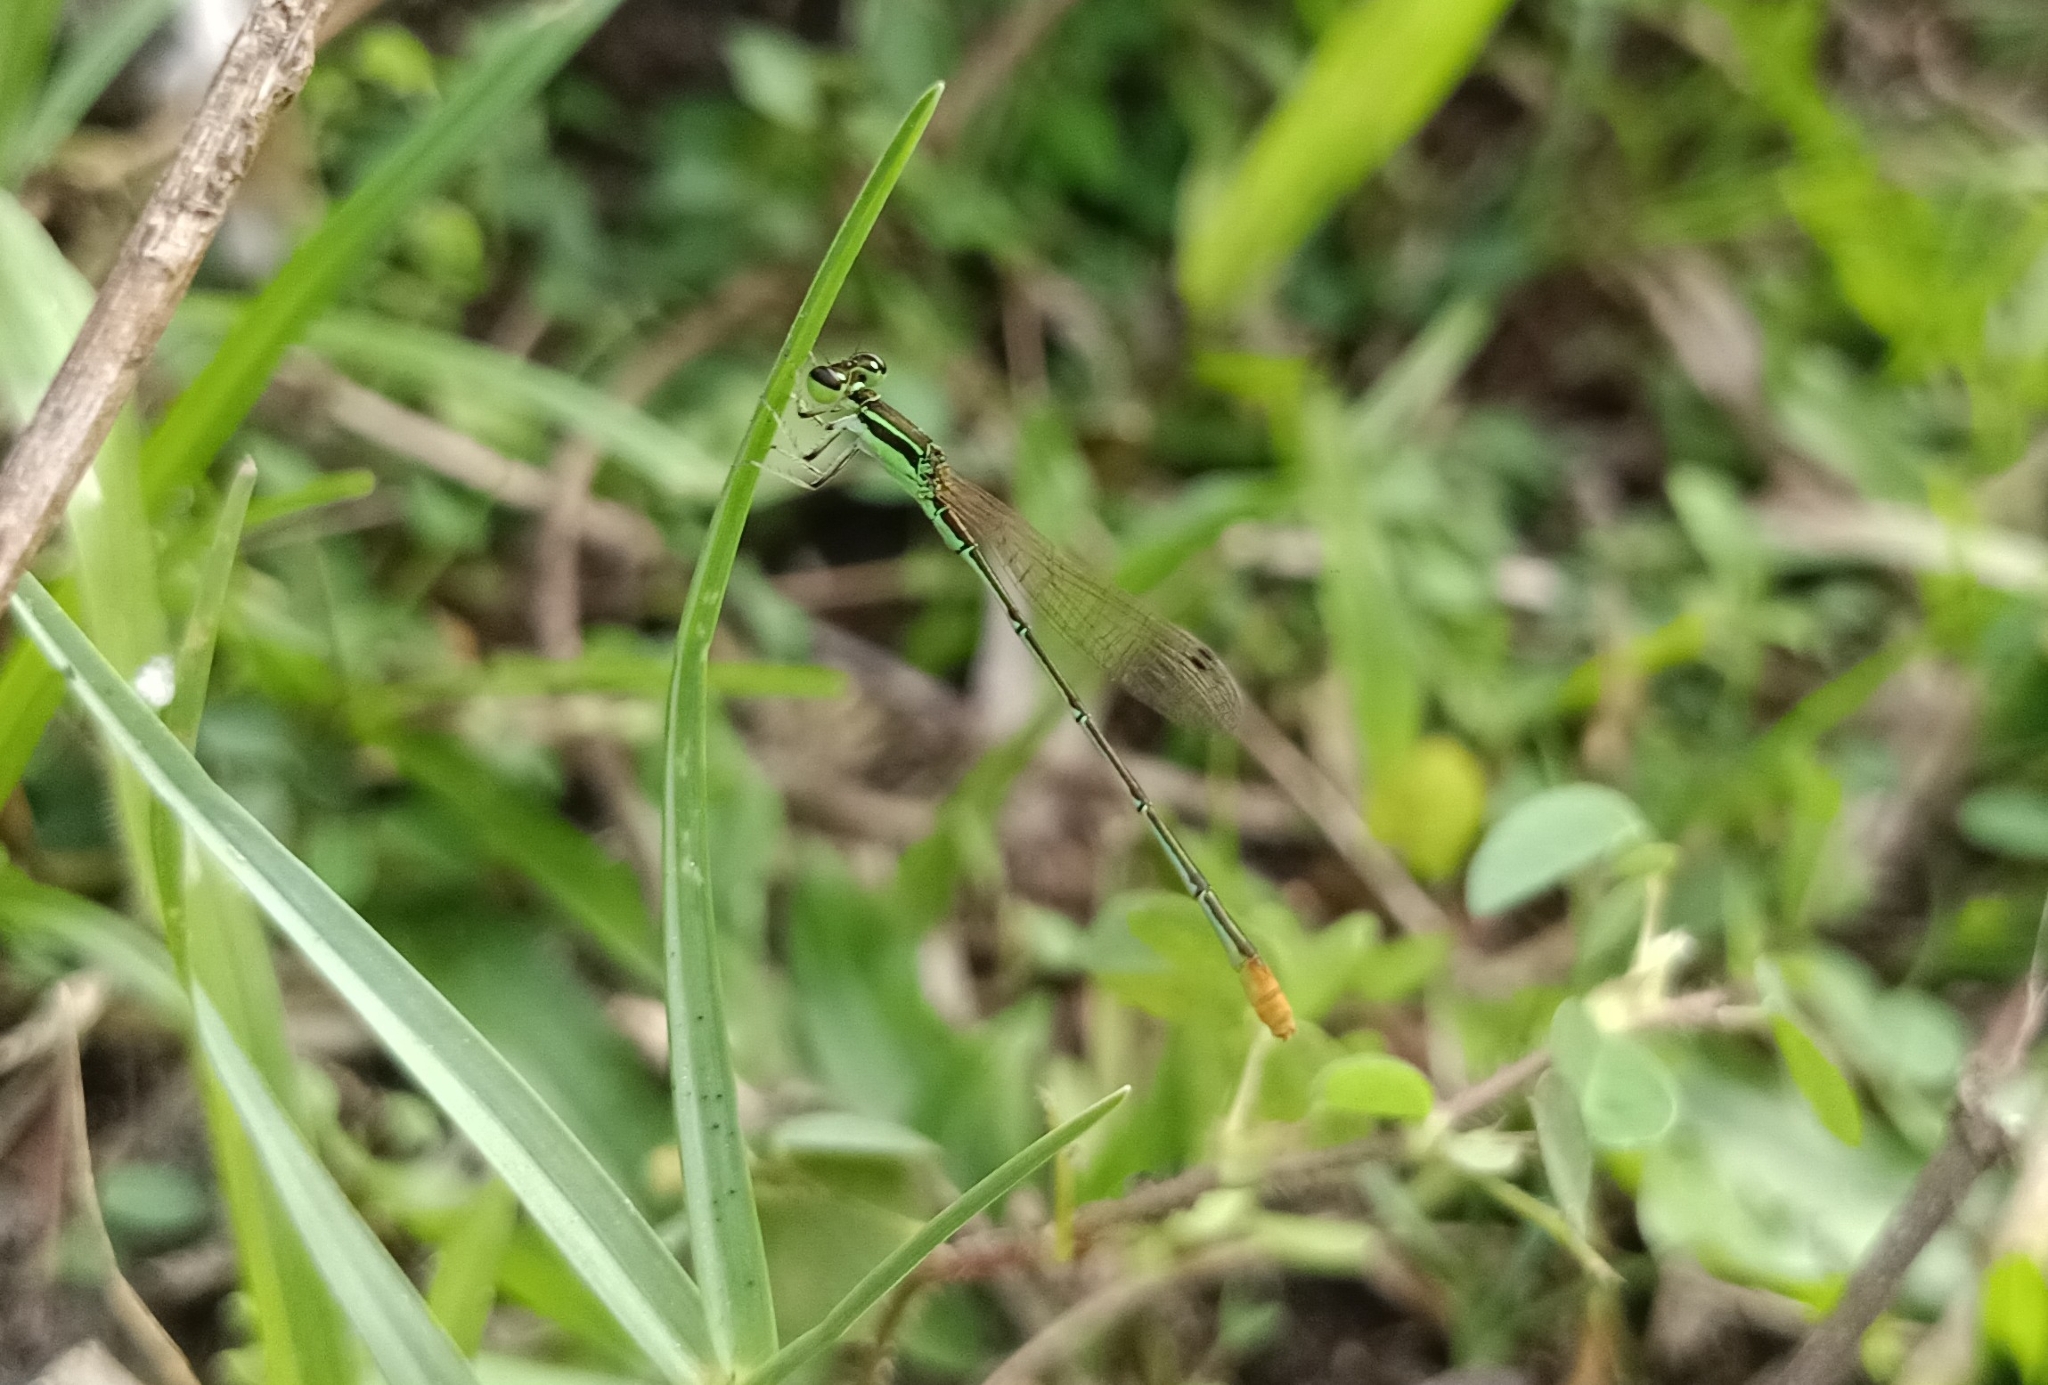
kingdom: Animalia
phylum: Arthropoda
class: Insecta
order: Odonata
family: Coenagrionidae
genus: Agriocnemis
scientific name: Agriocnemis pygmaea
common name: Pygmy wisp
